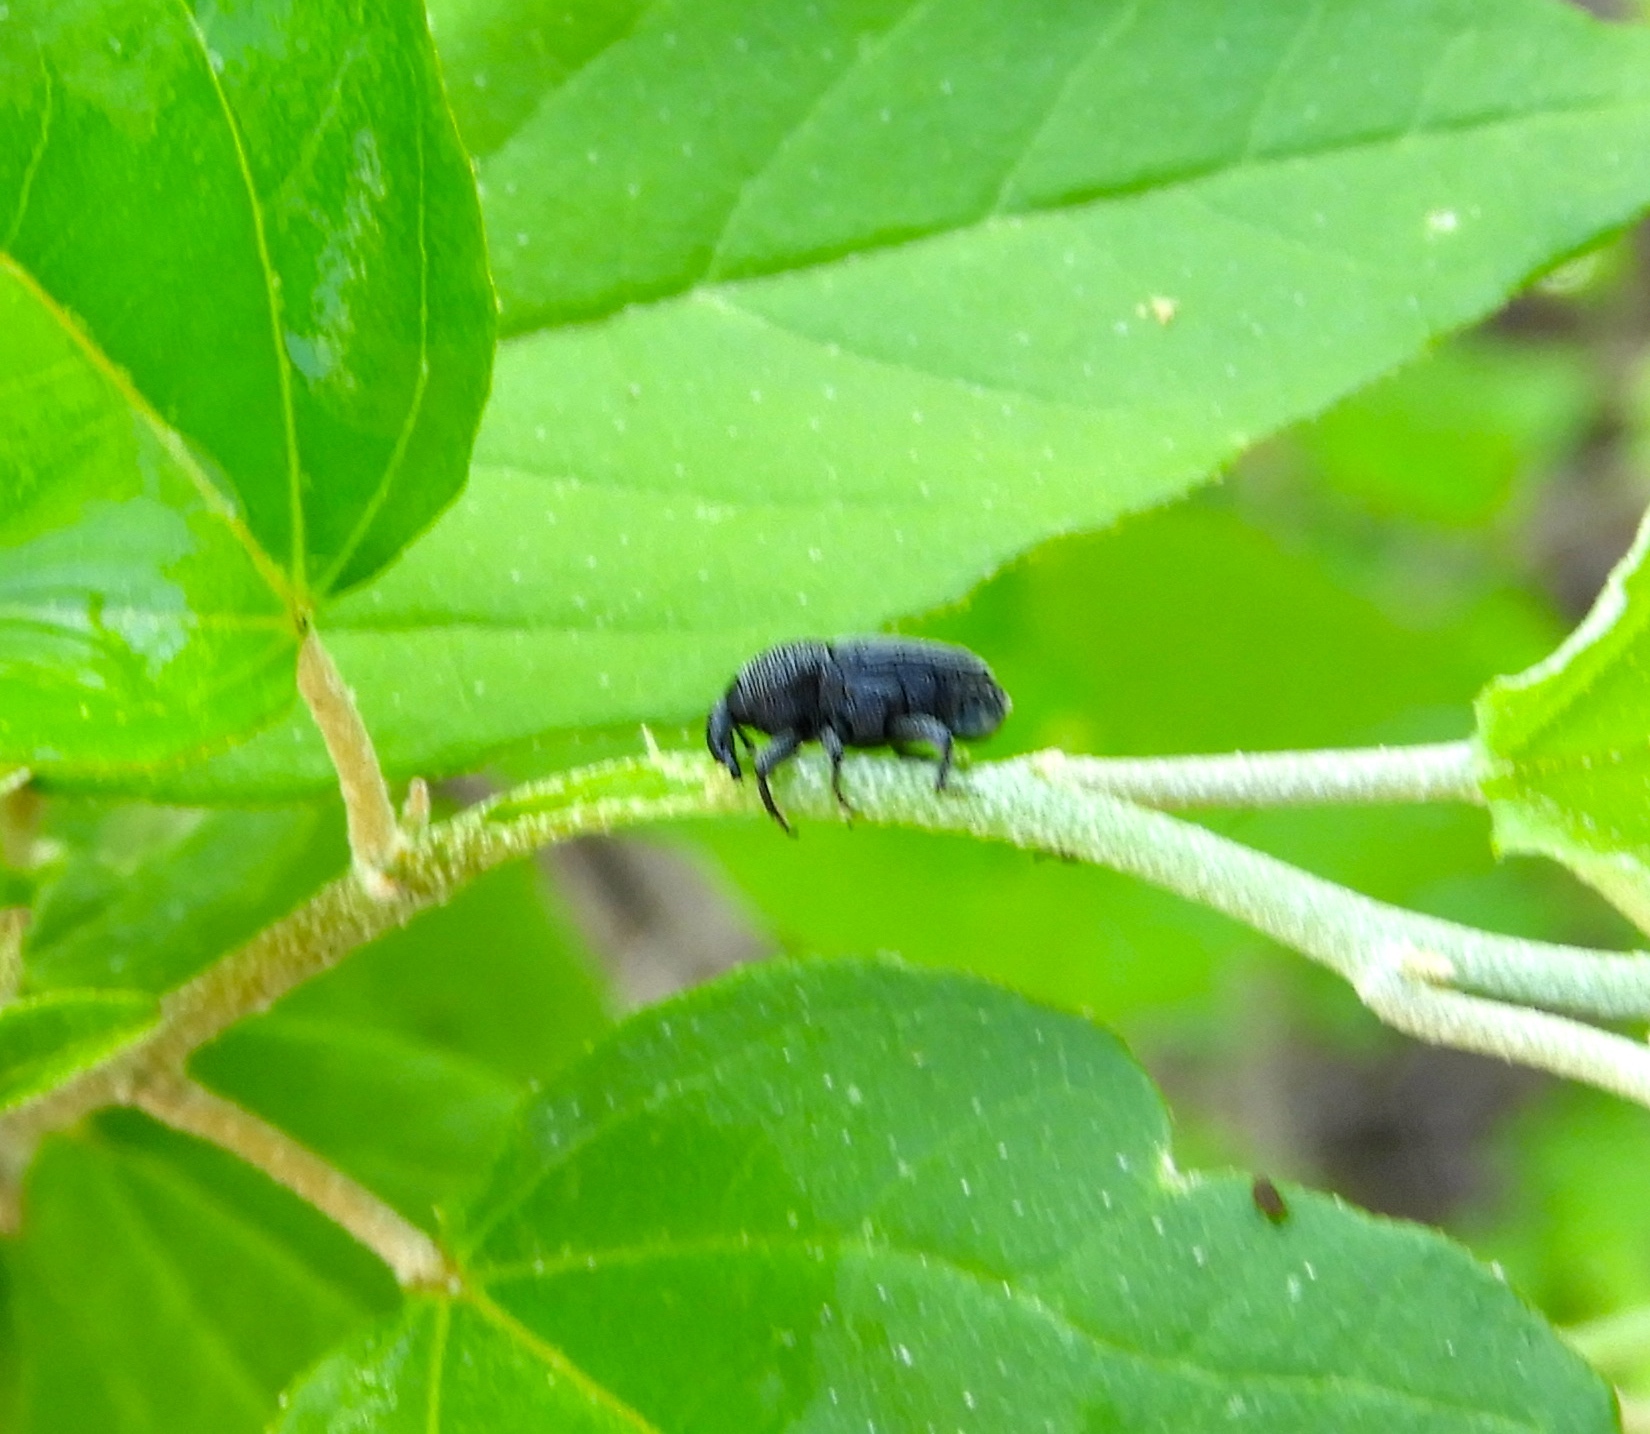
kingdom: Animalia
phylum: Arthropoda
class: Insecta
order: Coleoptera
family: Curculionidae
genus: Baridinae
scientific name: Baridinae
